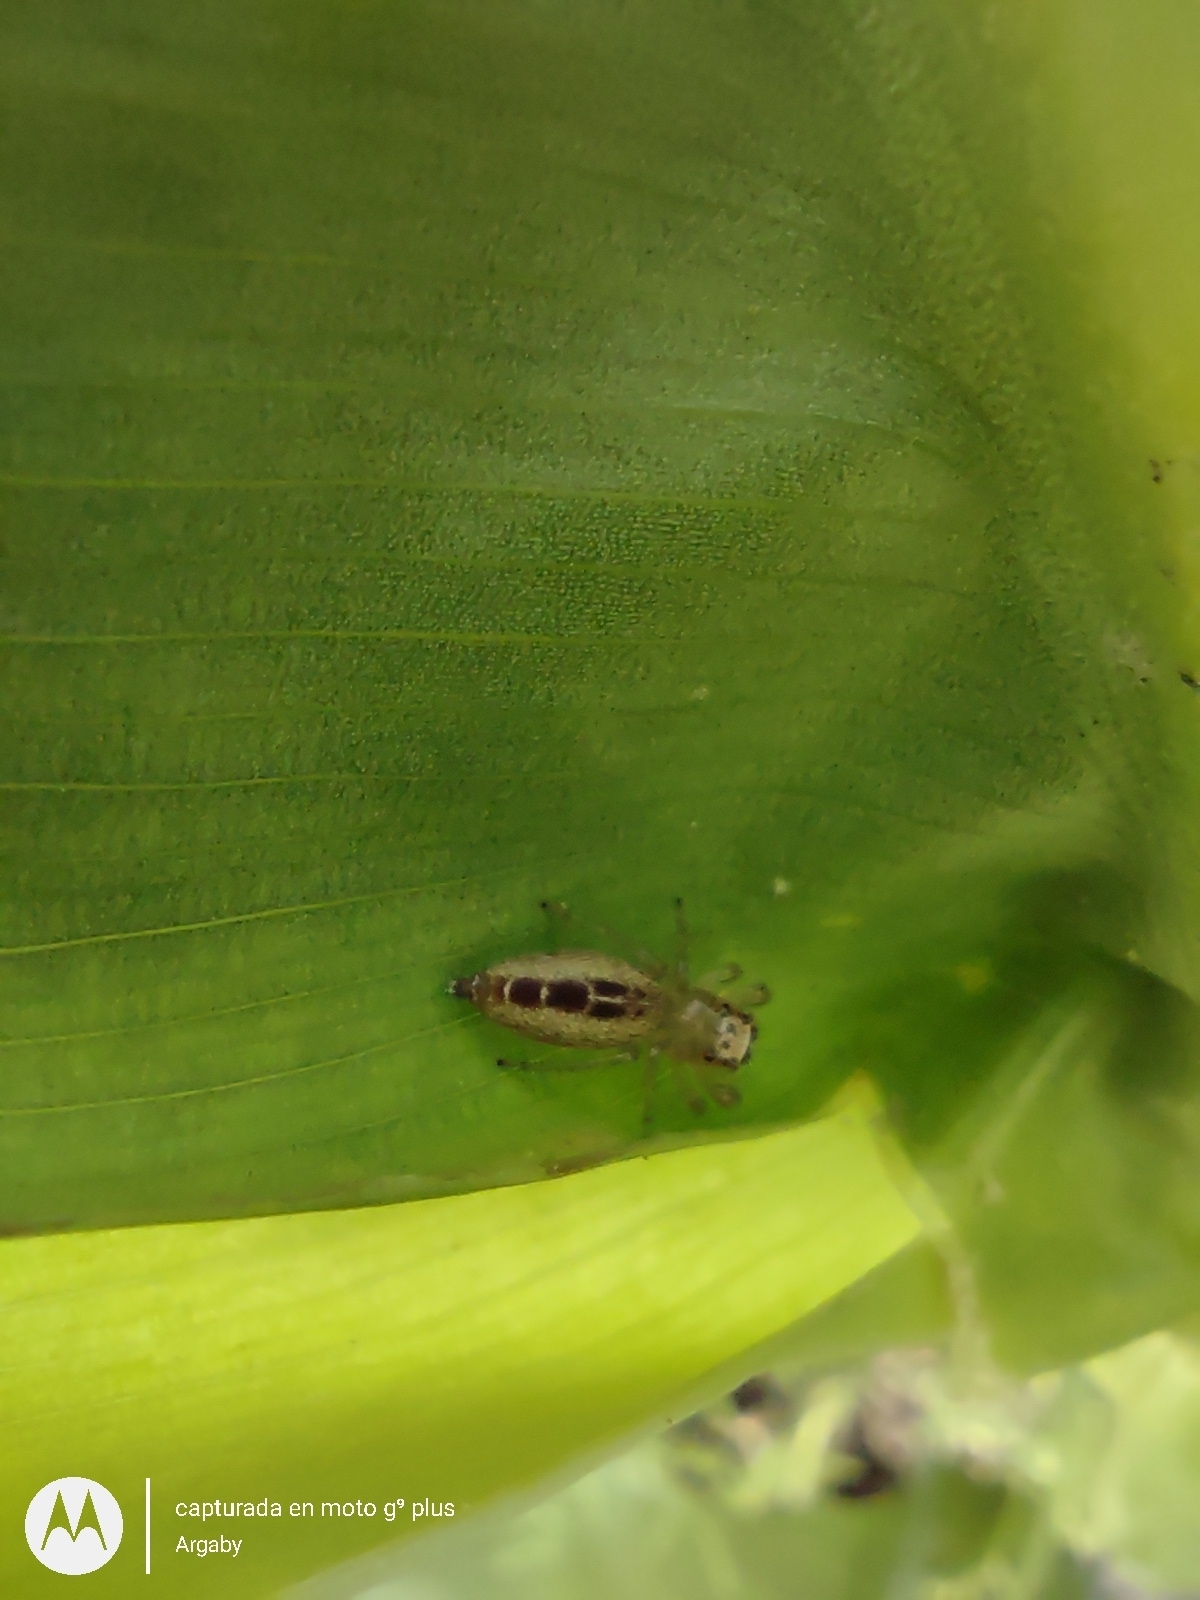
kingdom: Animalia
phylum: Arthropoda
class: Arachnida
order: Araneae
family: Salticidae
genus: Cotinusa
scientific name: Cotinusa vittata
